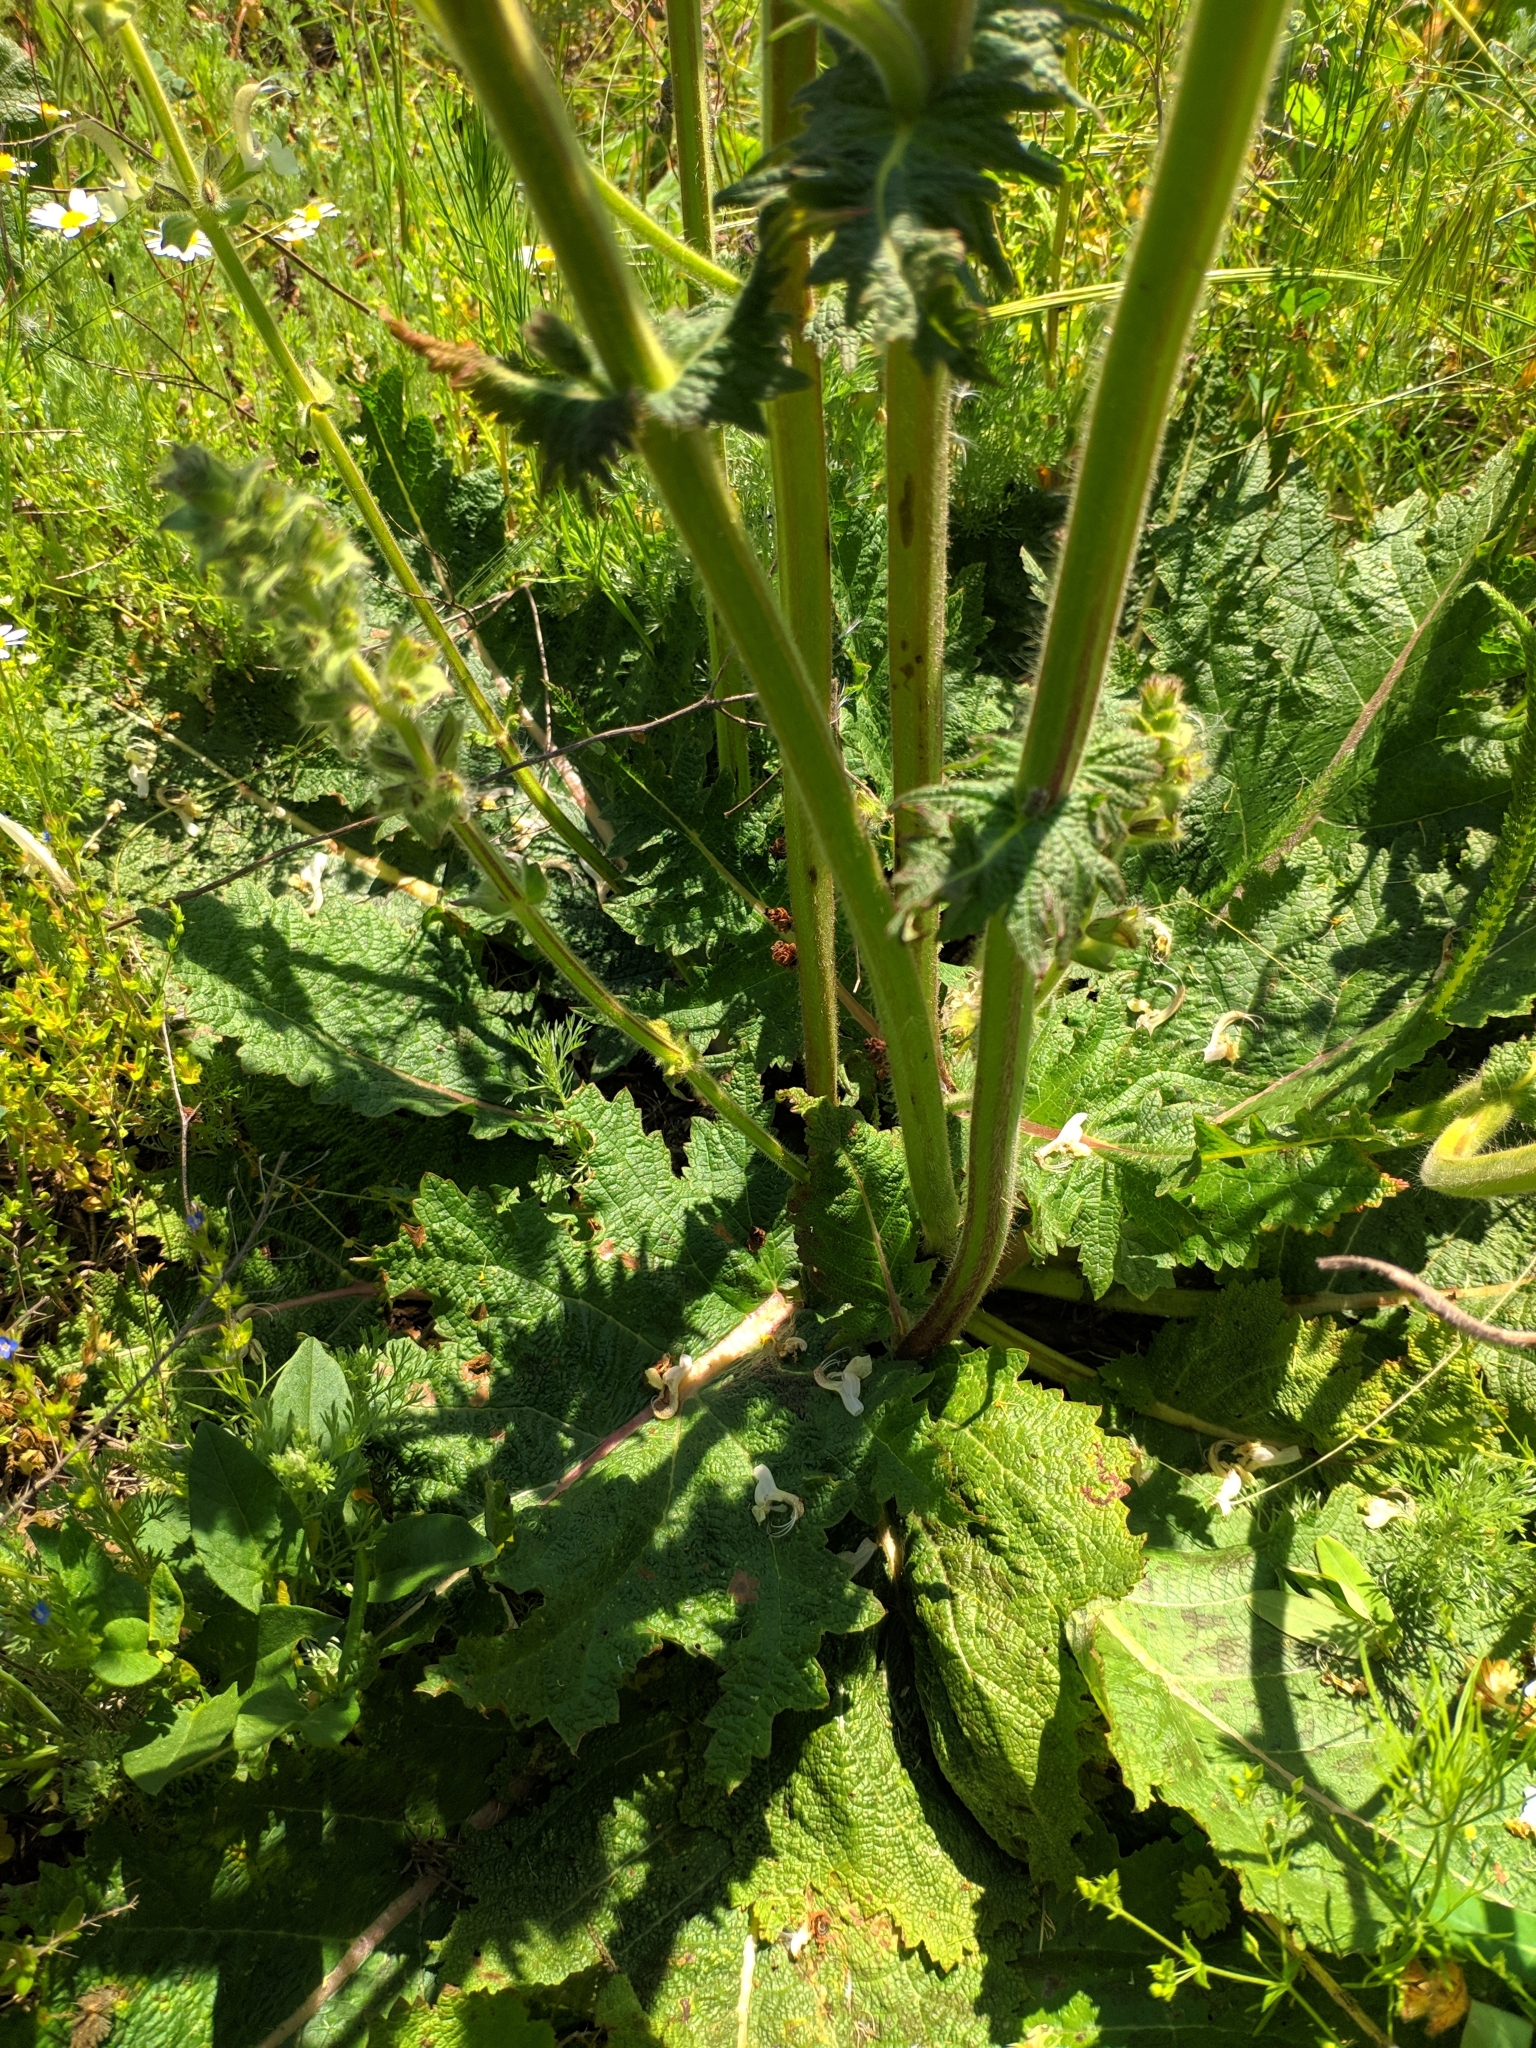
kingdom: Plantae
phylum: Tracheophyta
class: Magnoliopsida
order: Lamiales
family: Lamiaceae
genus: Salvia
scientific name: Salvia revoluta
